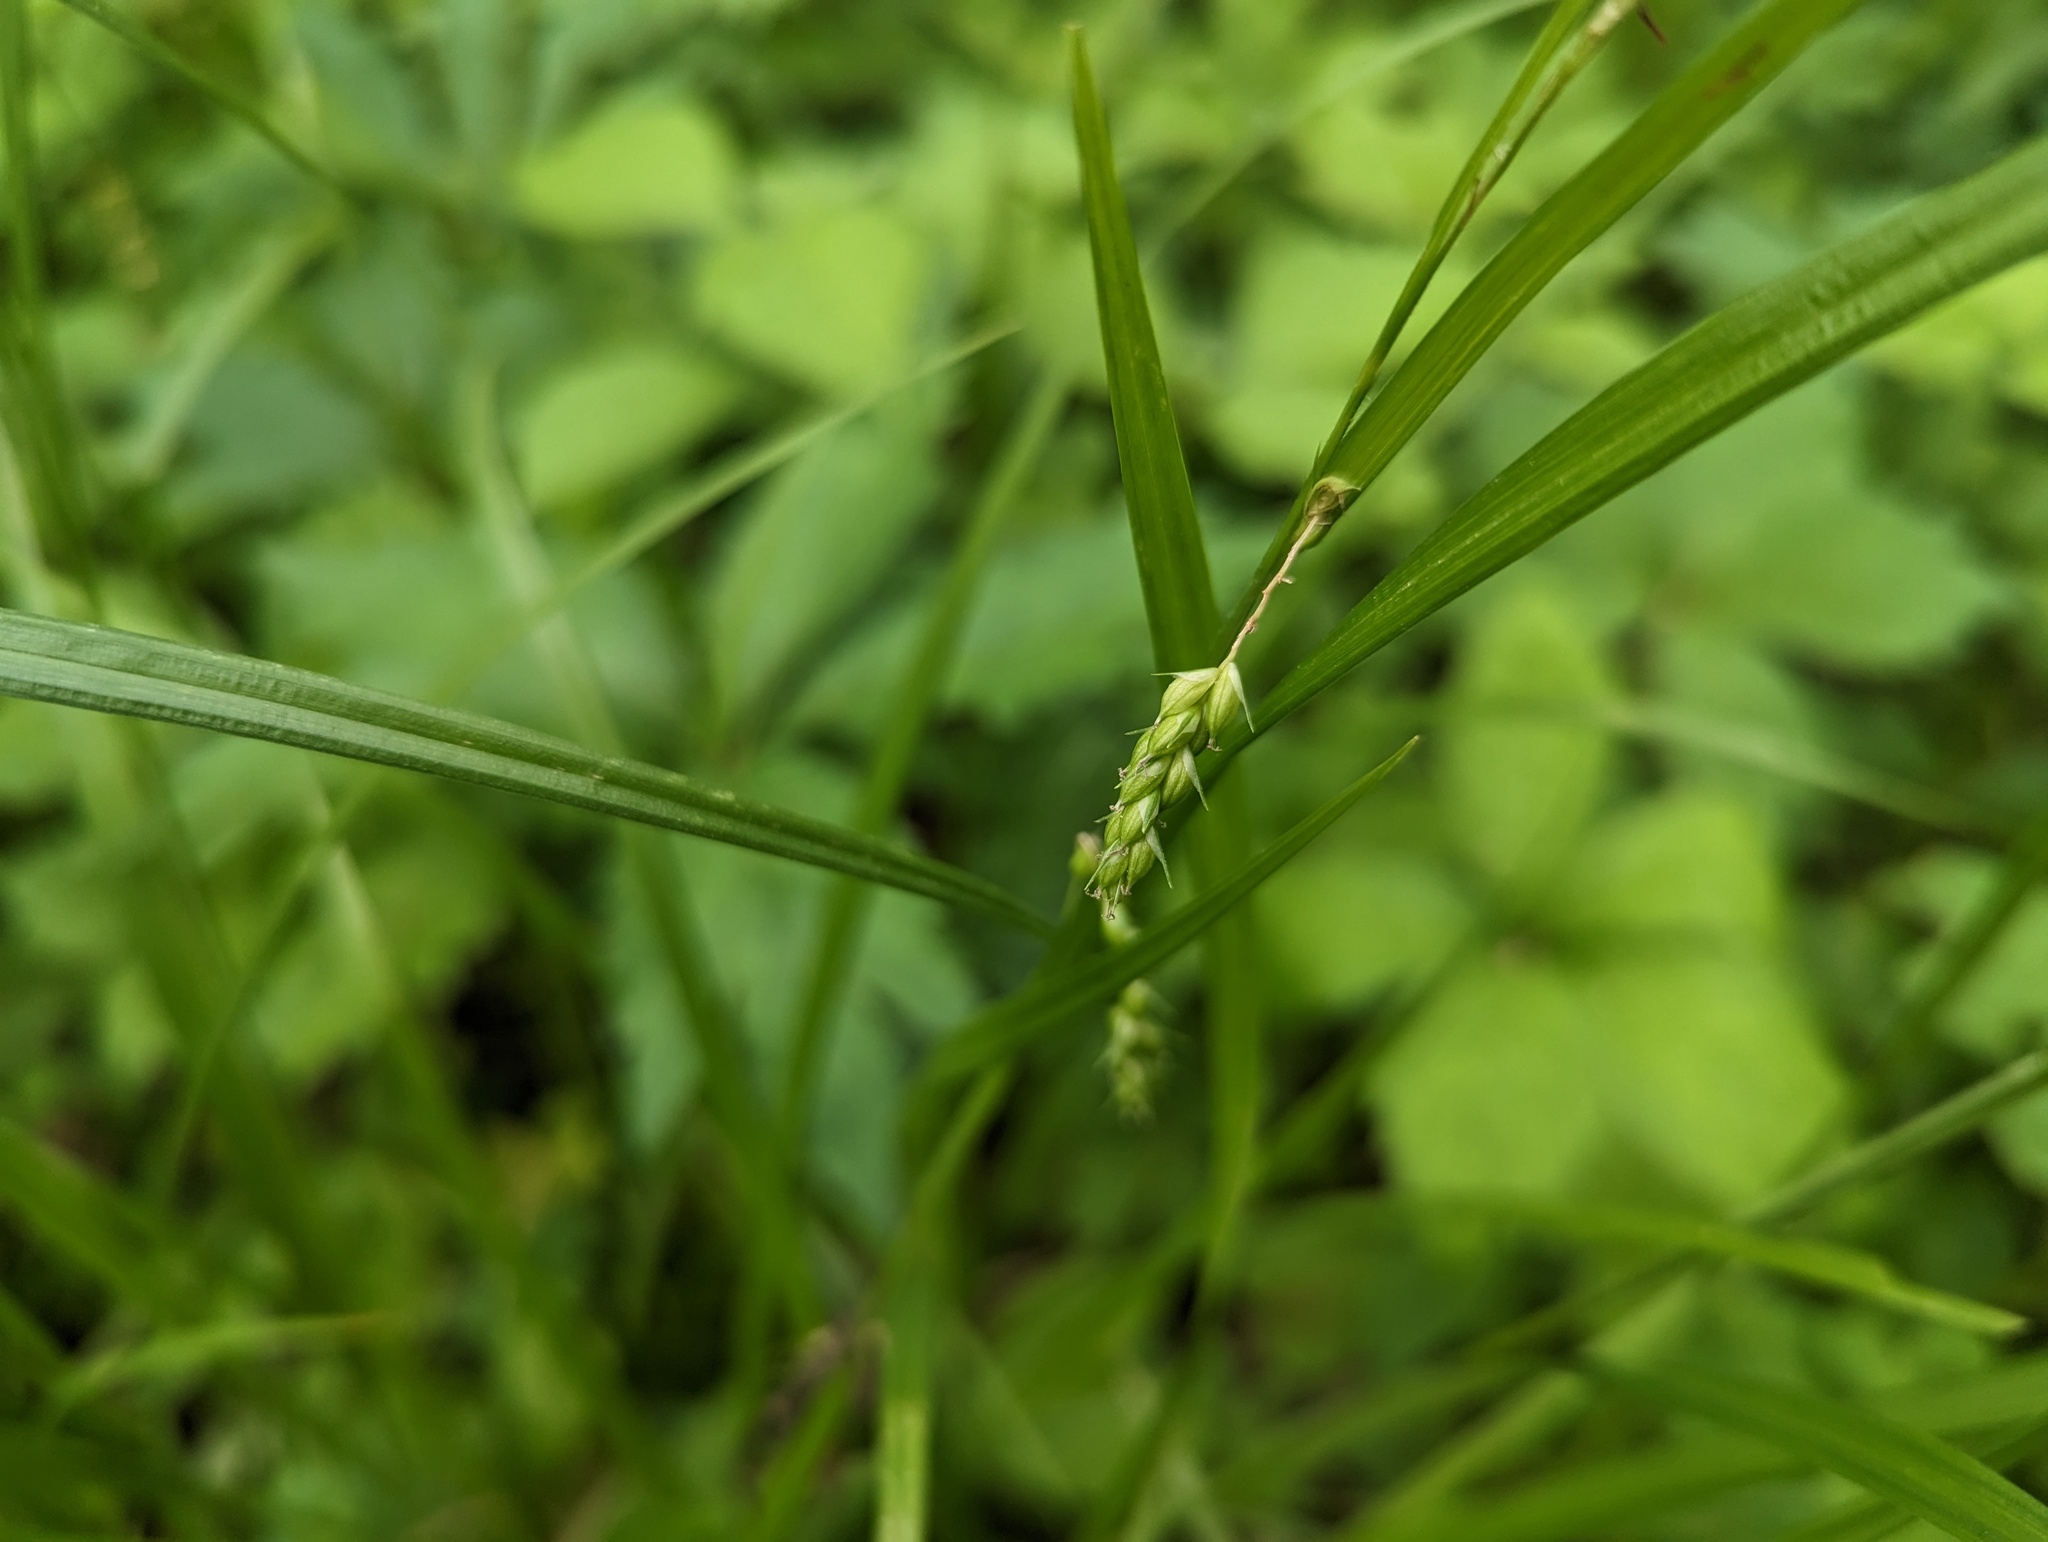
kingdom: Plantae
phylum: Tracheophyta
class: Liliopsida
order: Poales
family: Cyperaceae
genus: Carex
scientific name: Carex davisii
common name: Davis' sedge
